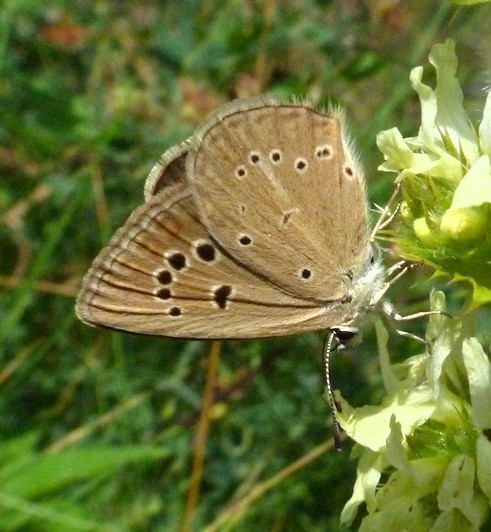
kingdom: Animalia
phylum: Arthropoda
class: Insecta
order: Lepidoptera
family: Lycaenidae
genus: Polyommatus
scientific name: Polyommatus ripartii
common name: Ripart's anomalous blue
